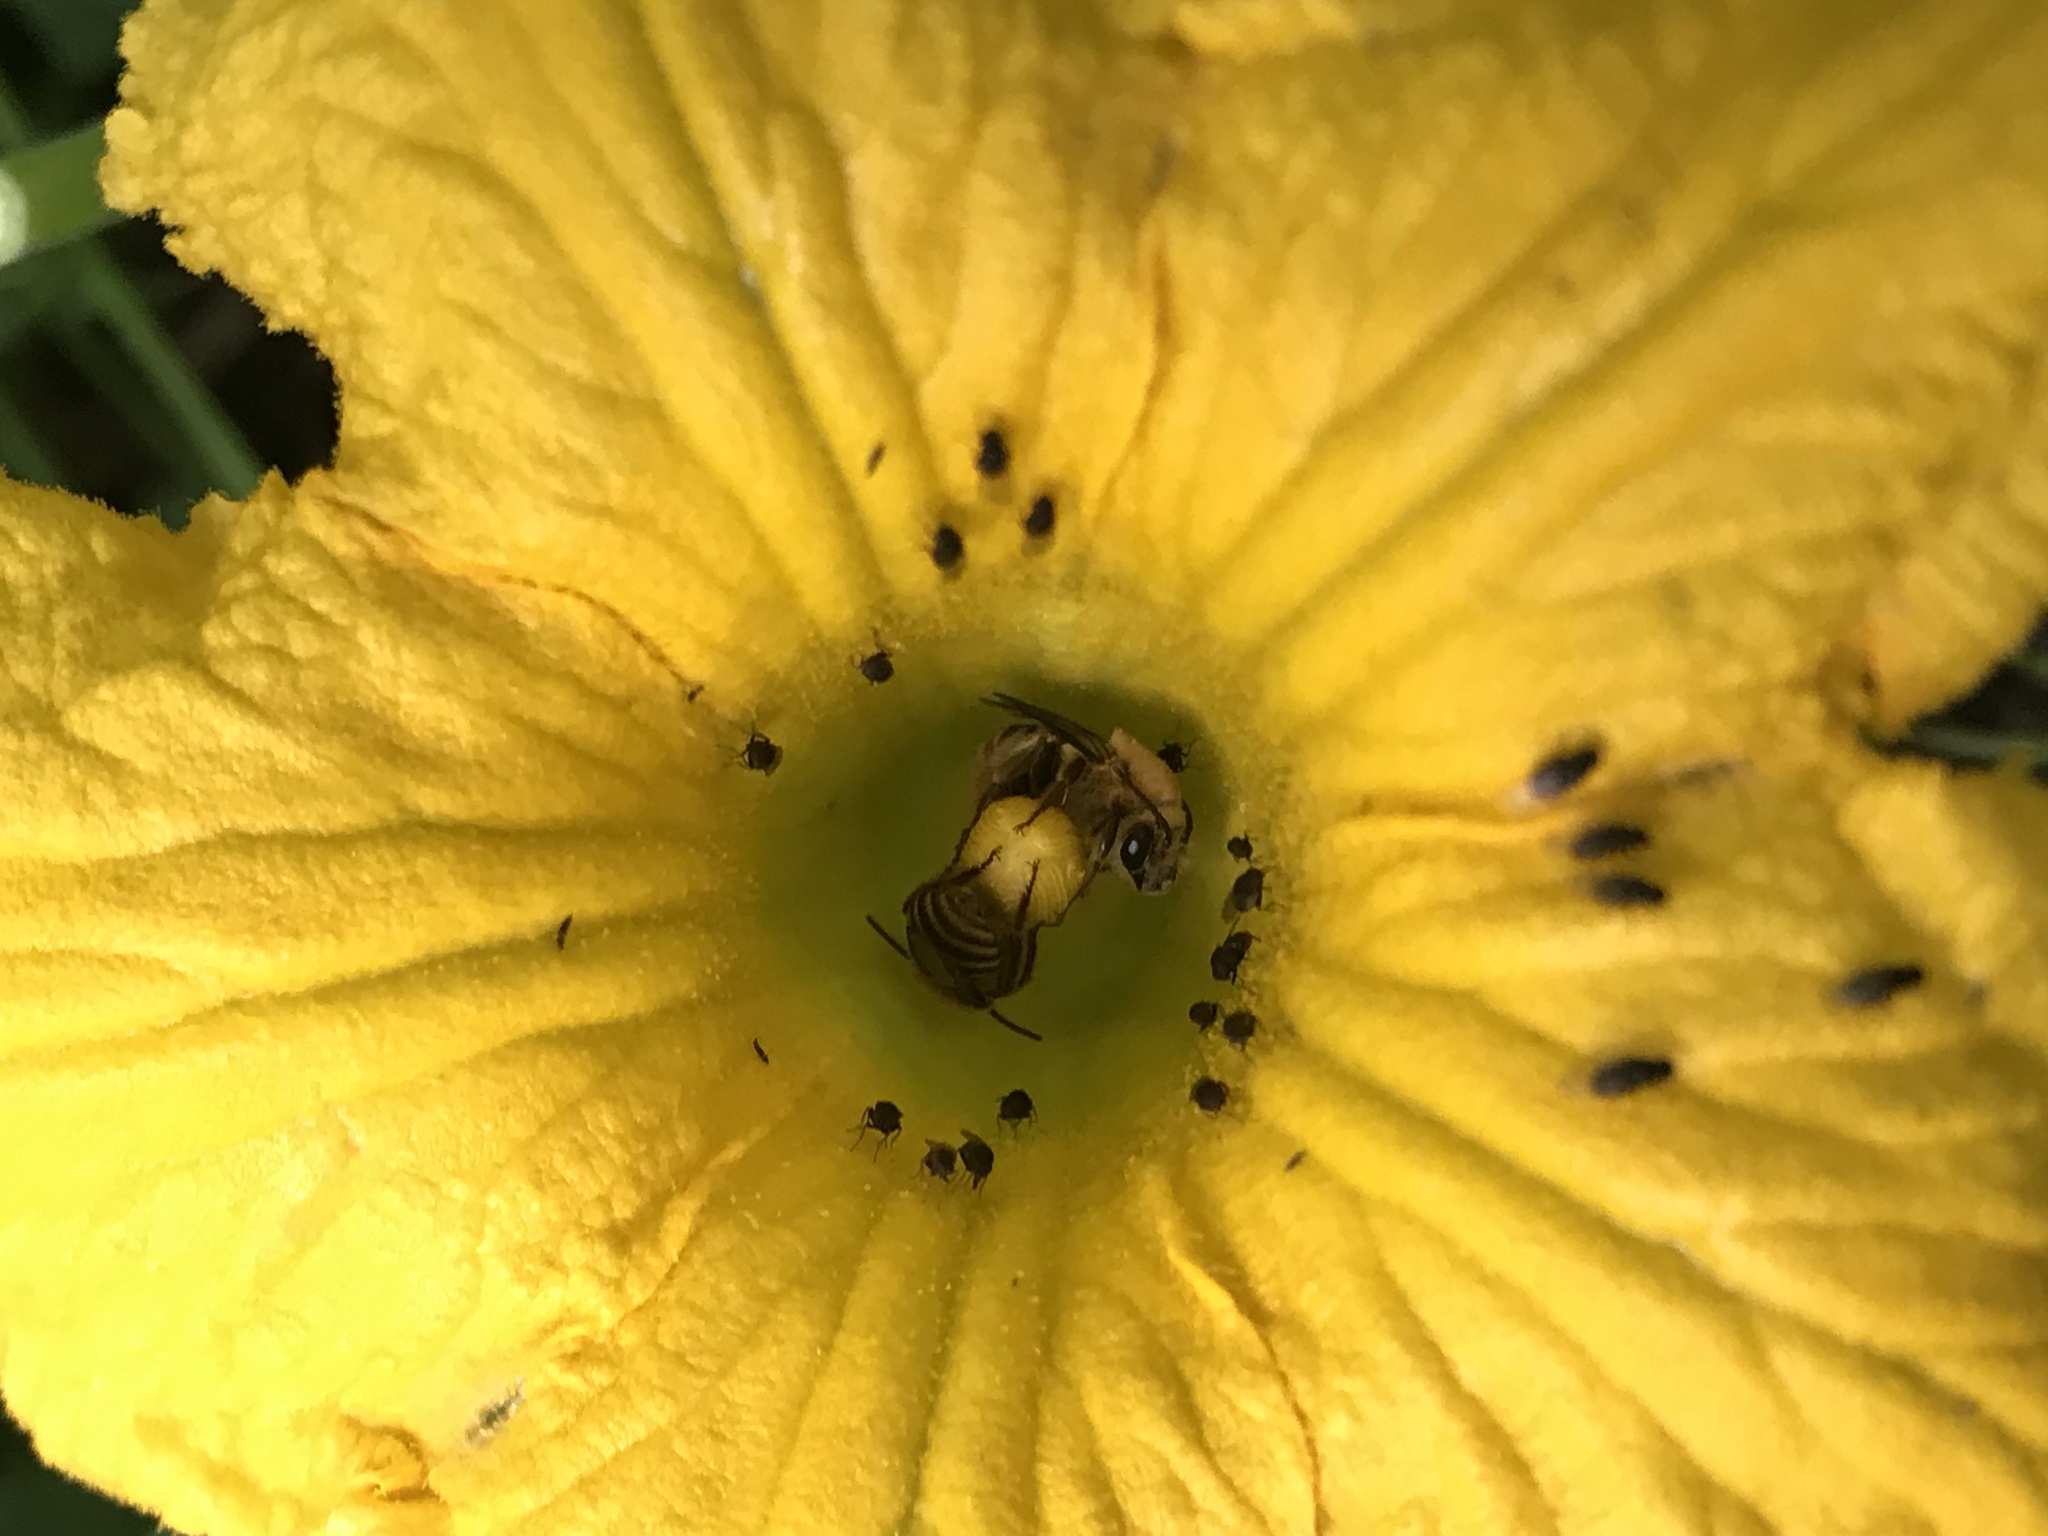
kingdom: Animalia
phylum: Arthropoda
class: Insecta
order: Hymenoptera
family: Apidae
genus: Peponapis
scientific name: Peponapis pruinosa
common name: Pruinose squash bee
